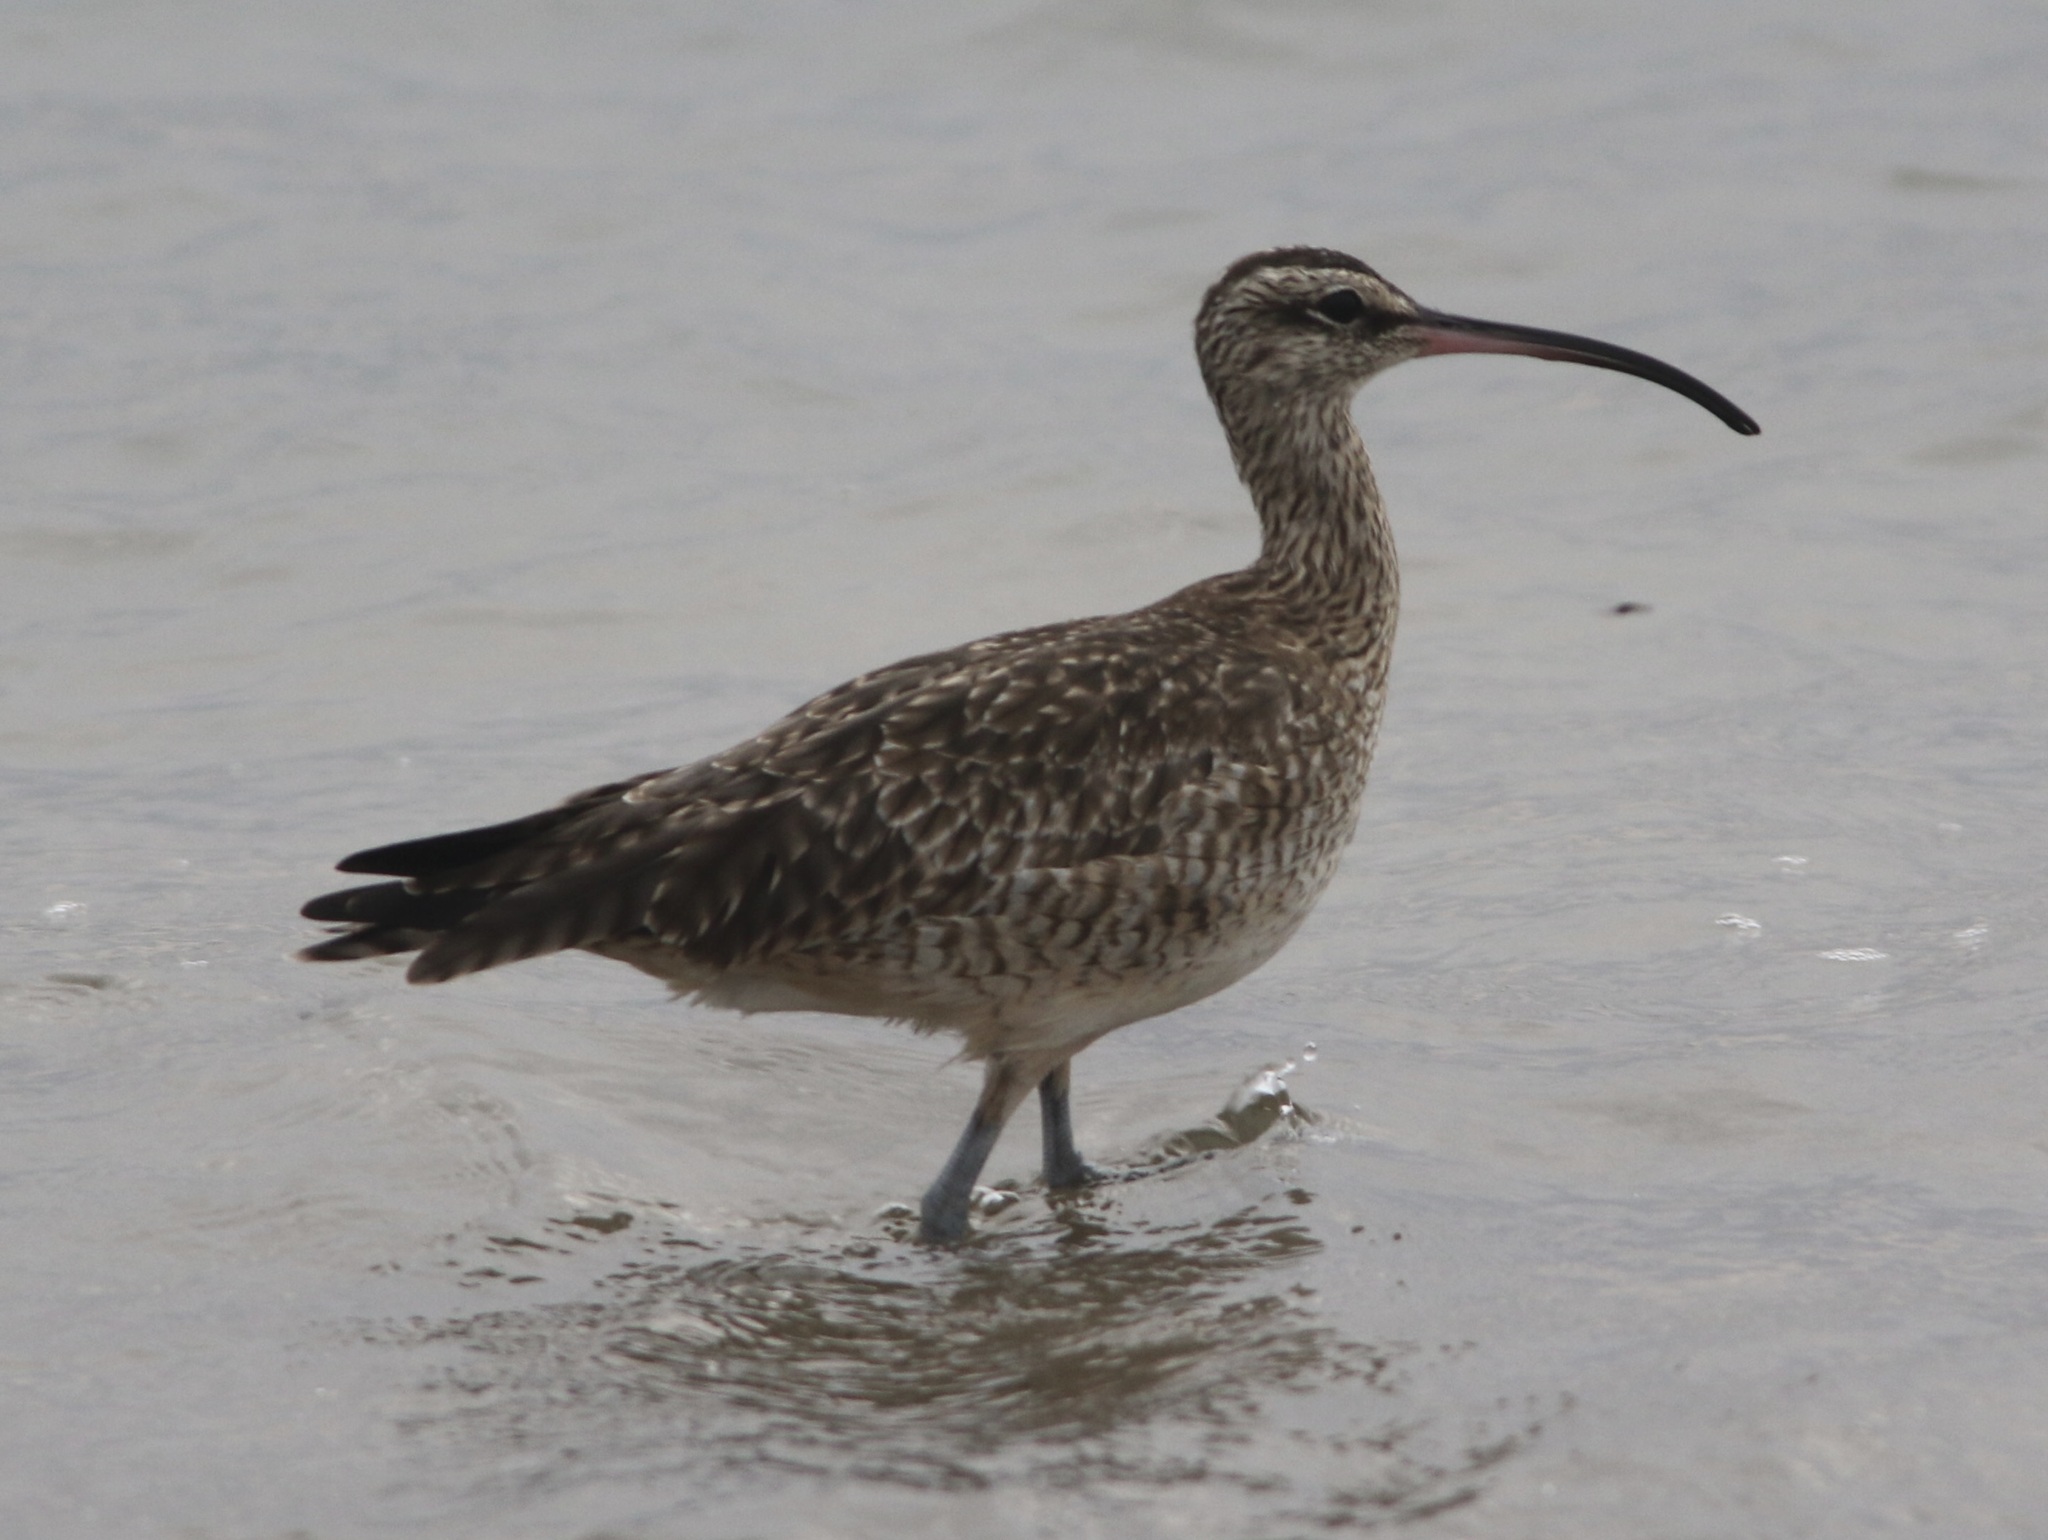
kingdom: Animalia
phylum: Chordata
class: Aves
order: Charadriiformes
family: Scolopacidae
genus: Numenius
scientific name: Numenius phaeopus
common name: Whimbrel
